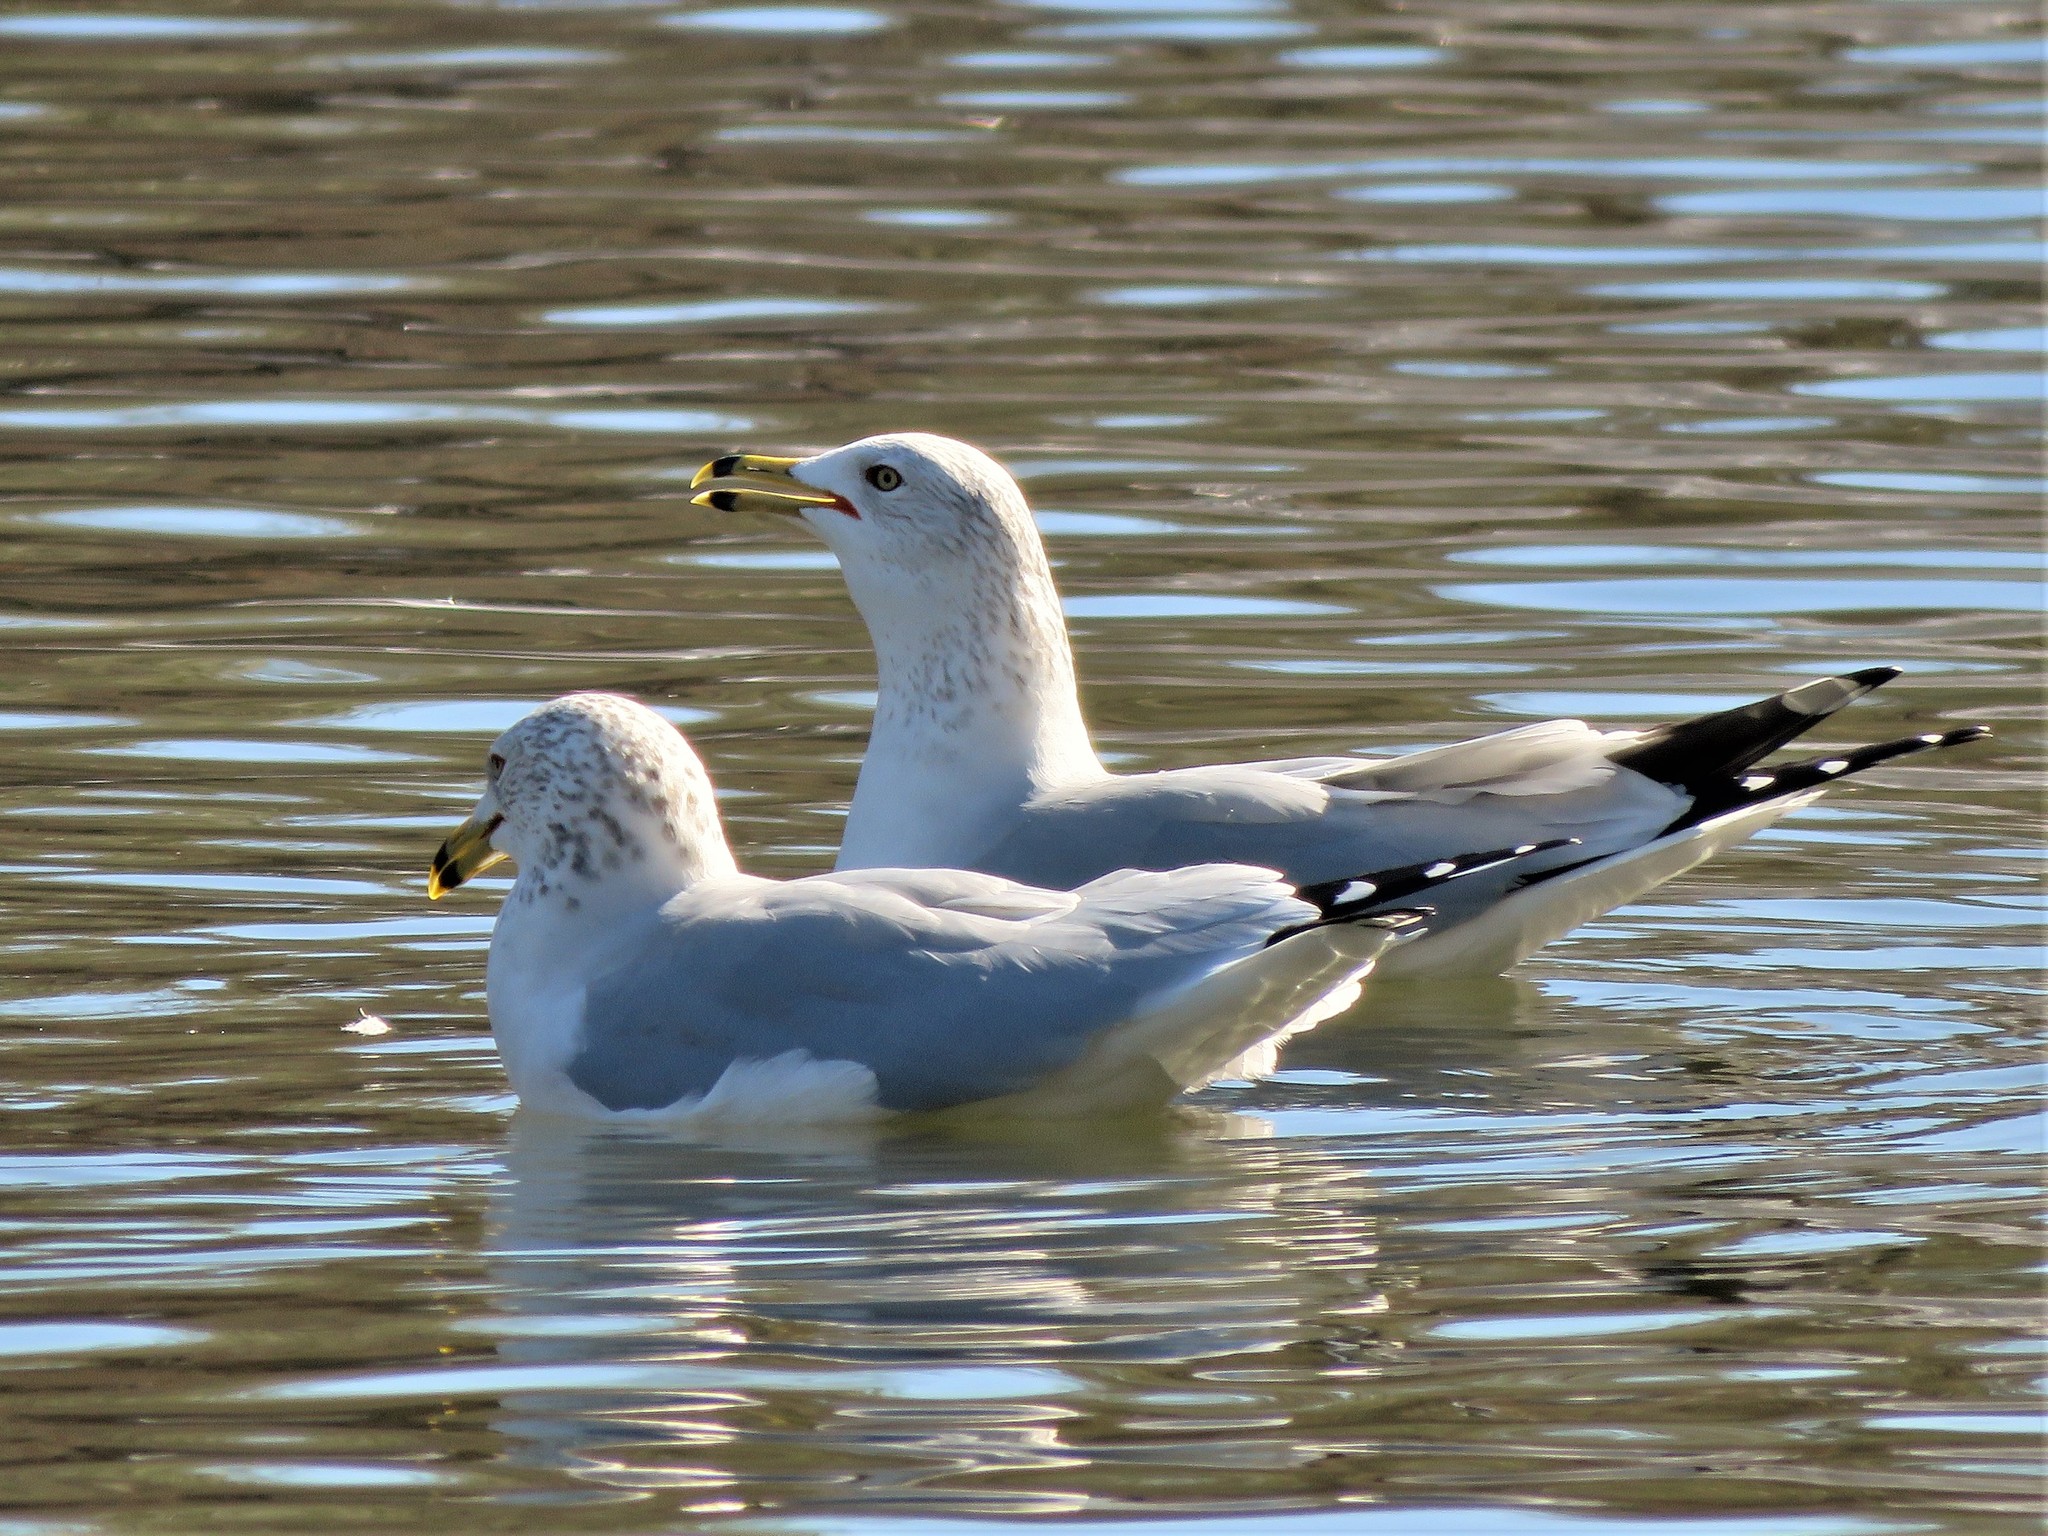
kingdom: Animalia
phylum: Chordata
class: Aves
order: Charadriiformes
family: Laridae
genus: Larus
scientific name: Larus delawarensis
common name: Ring-billed gull
